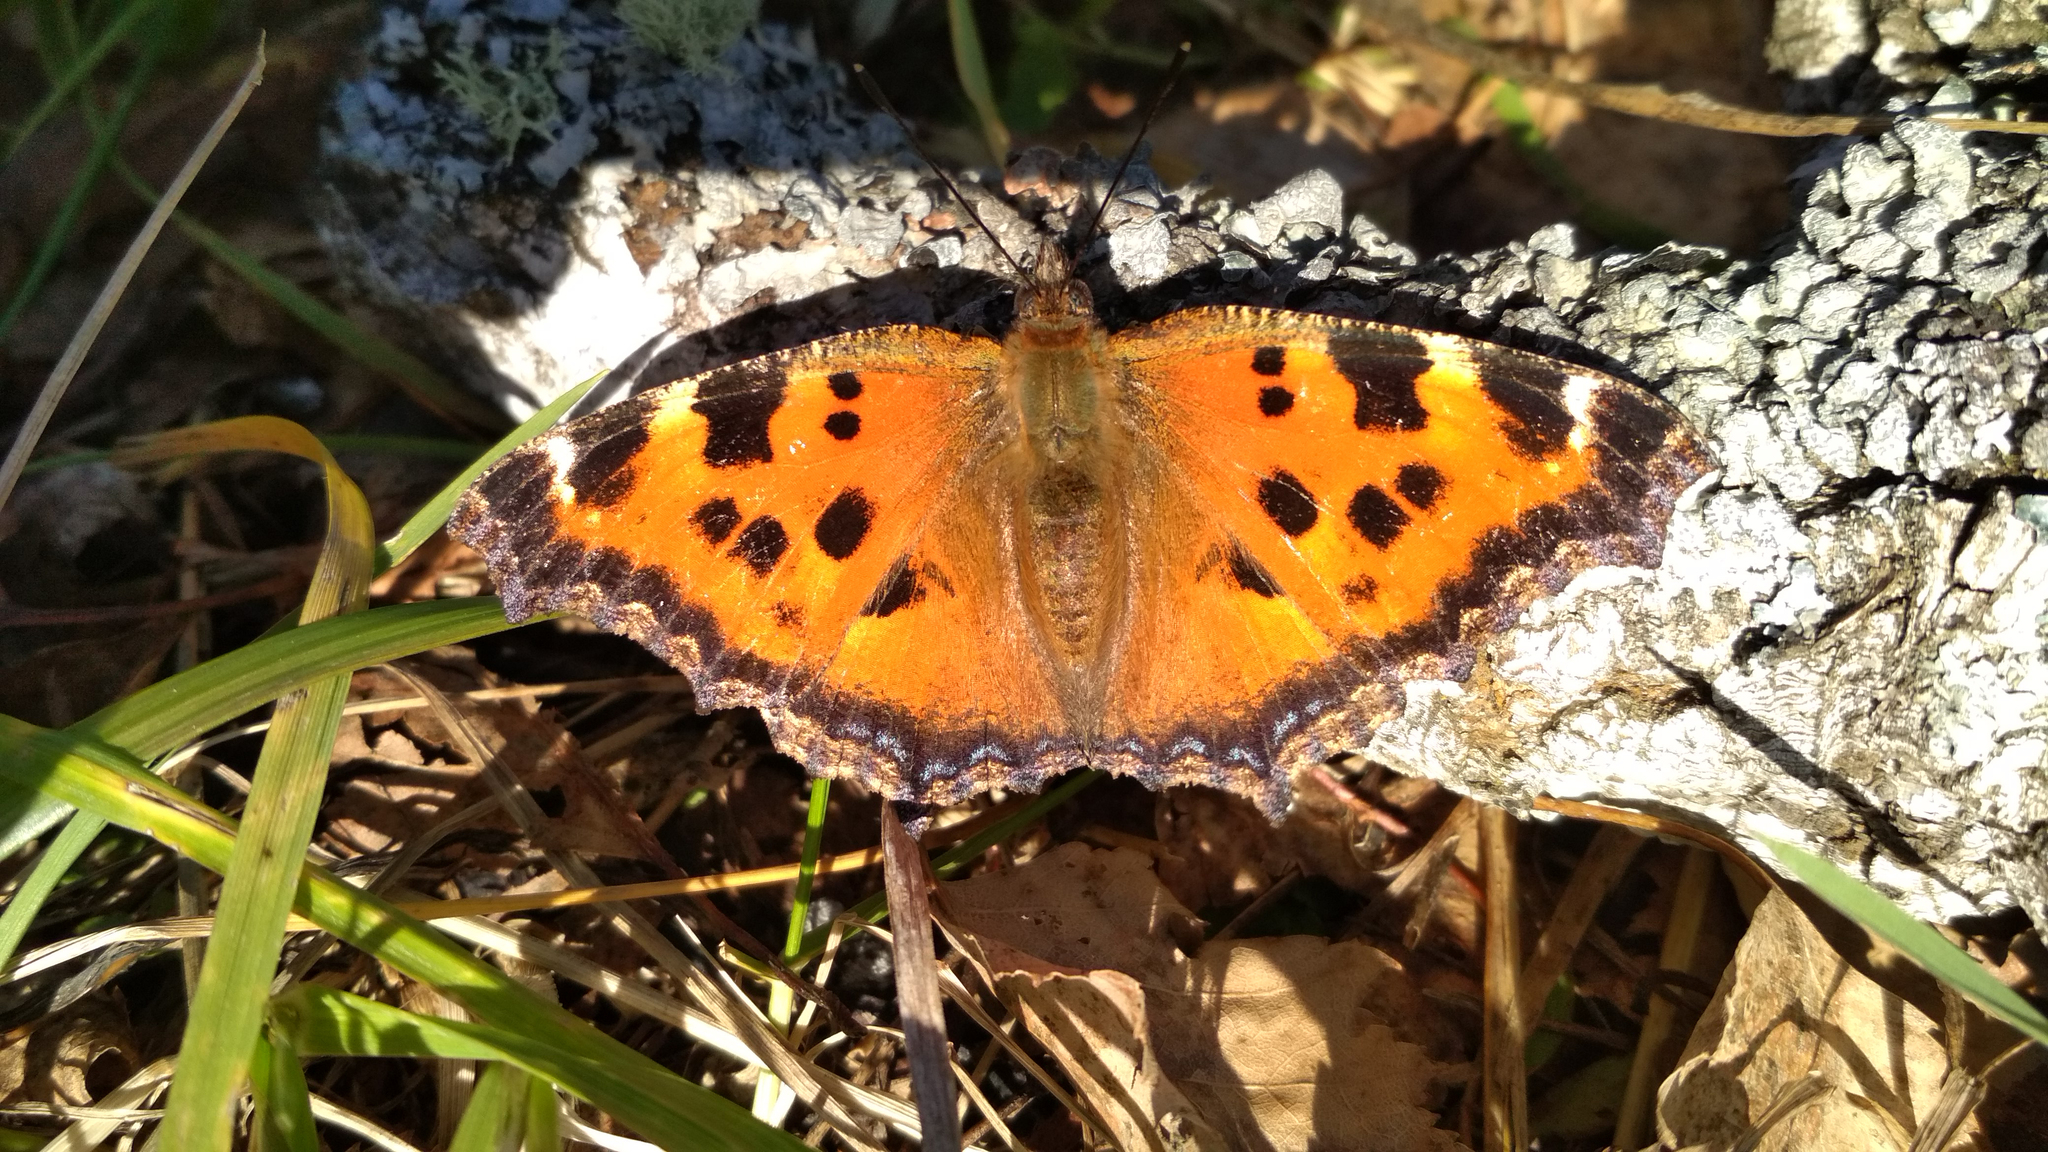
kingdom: Animalia
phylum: Arthropoda
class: Insecta
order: Lepidoptera
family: Nymphalidae
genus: Nymphalis
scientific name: Nymphalis xanthomelas
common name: Scarce tortoiseshell
